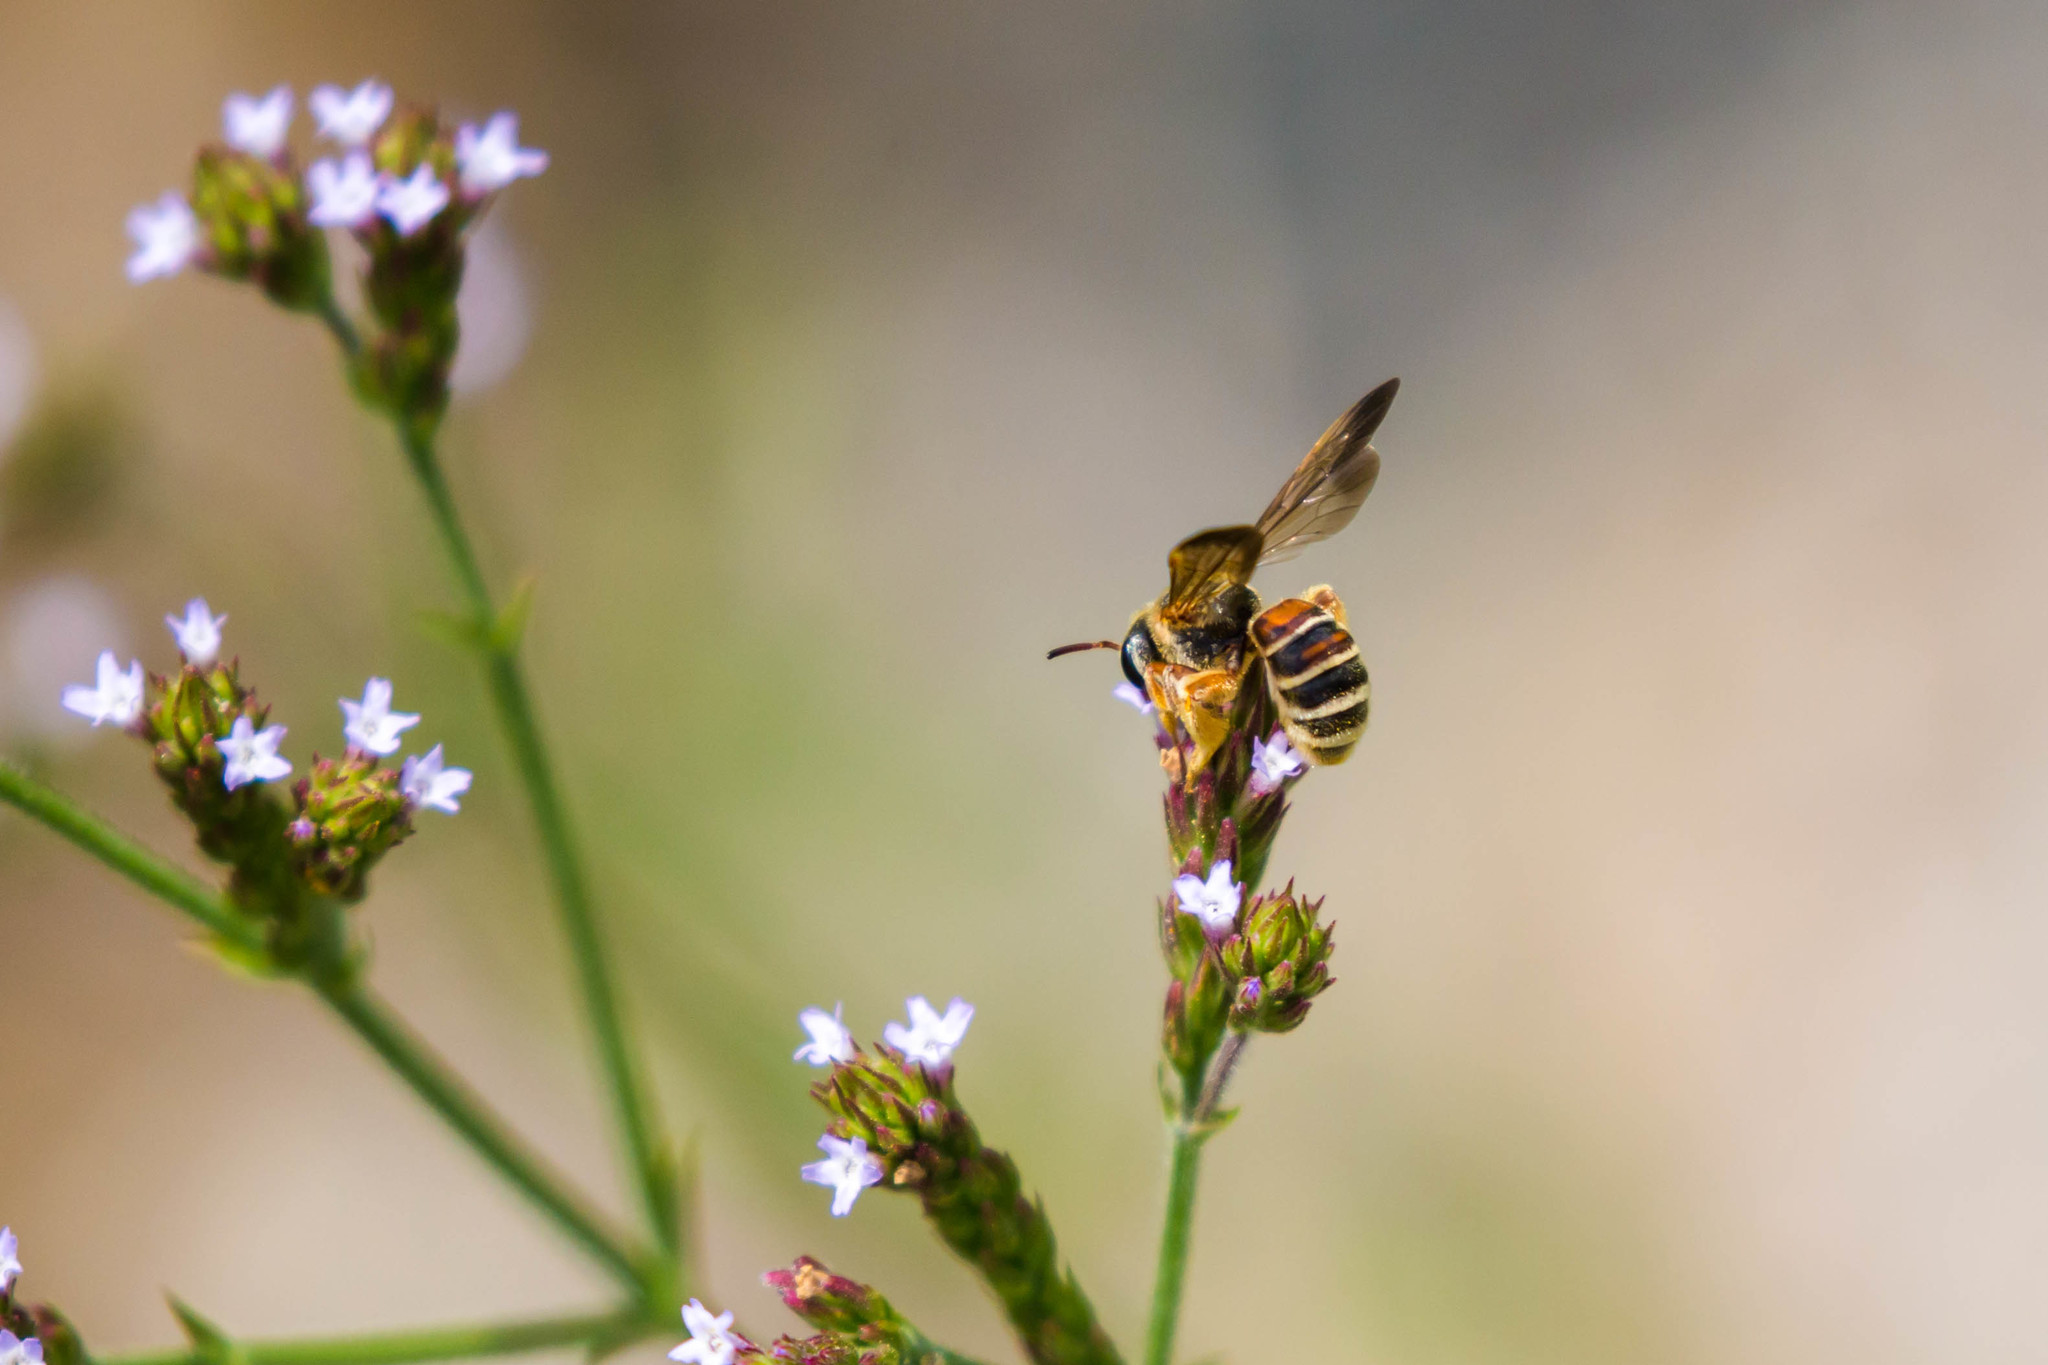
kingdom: Animalia
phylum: Arthropoda
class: Insecta
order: Hymenoptera
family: Halictidae
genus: Dieunomia
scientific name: Dieunomia nevadensis
